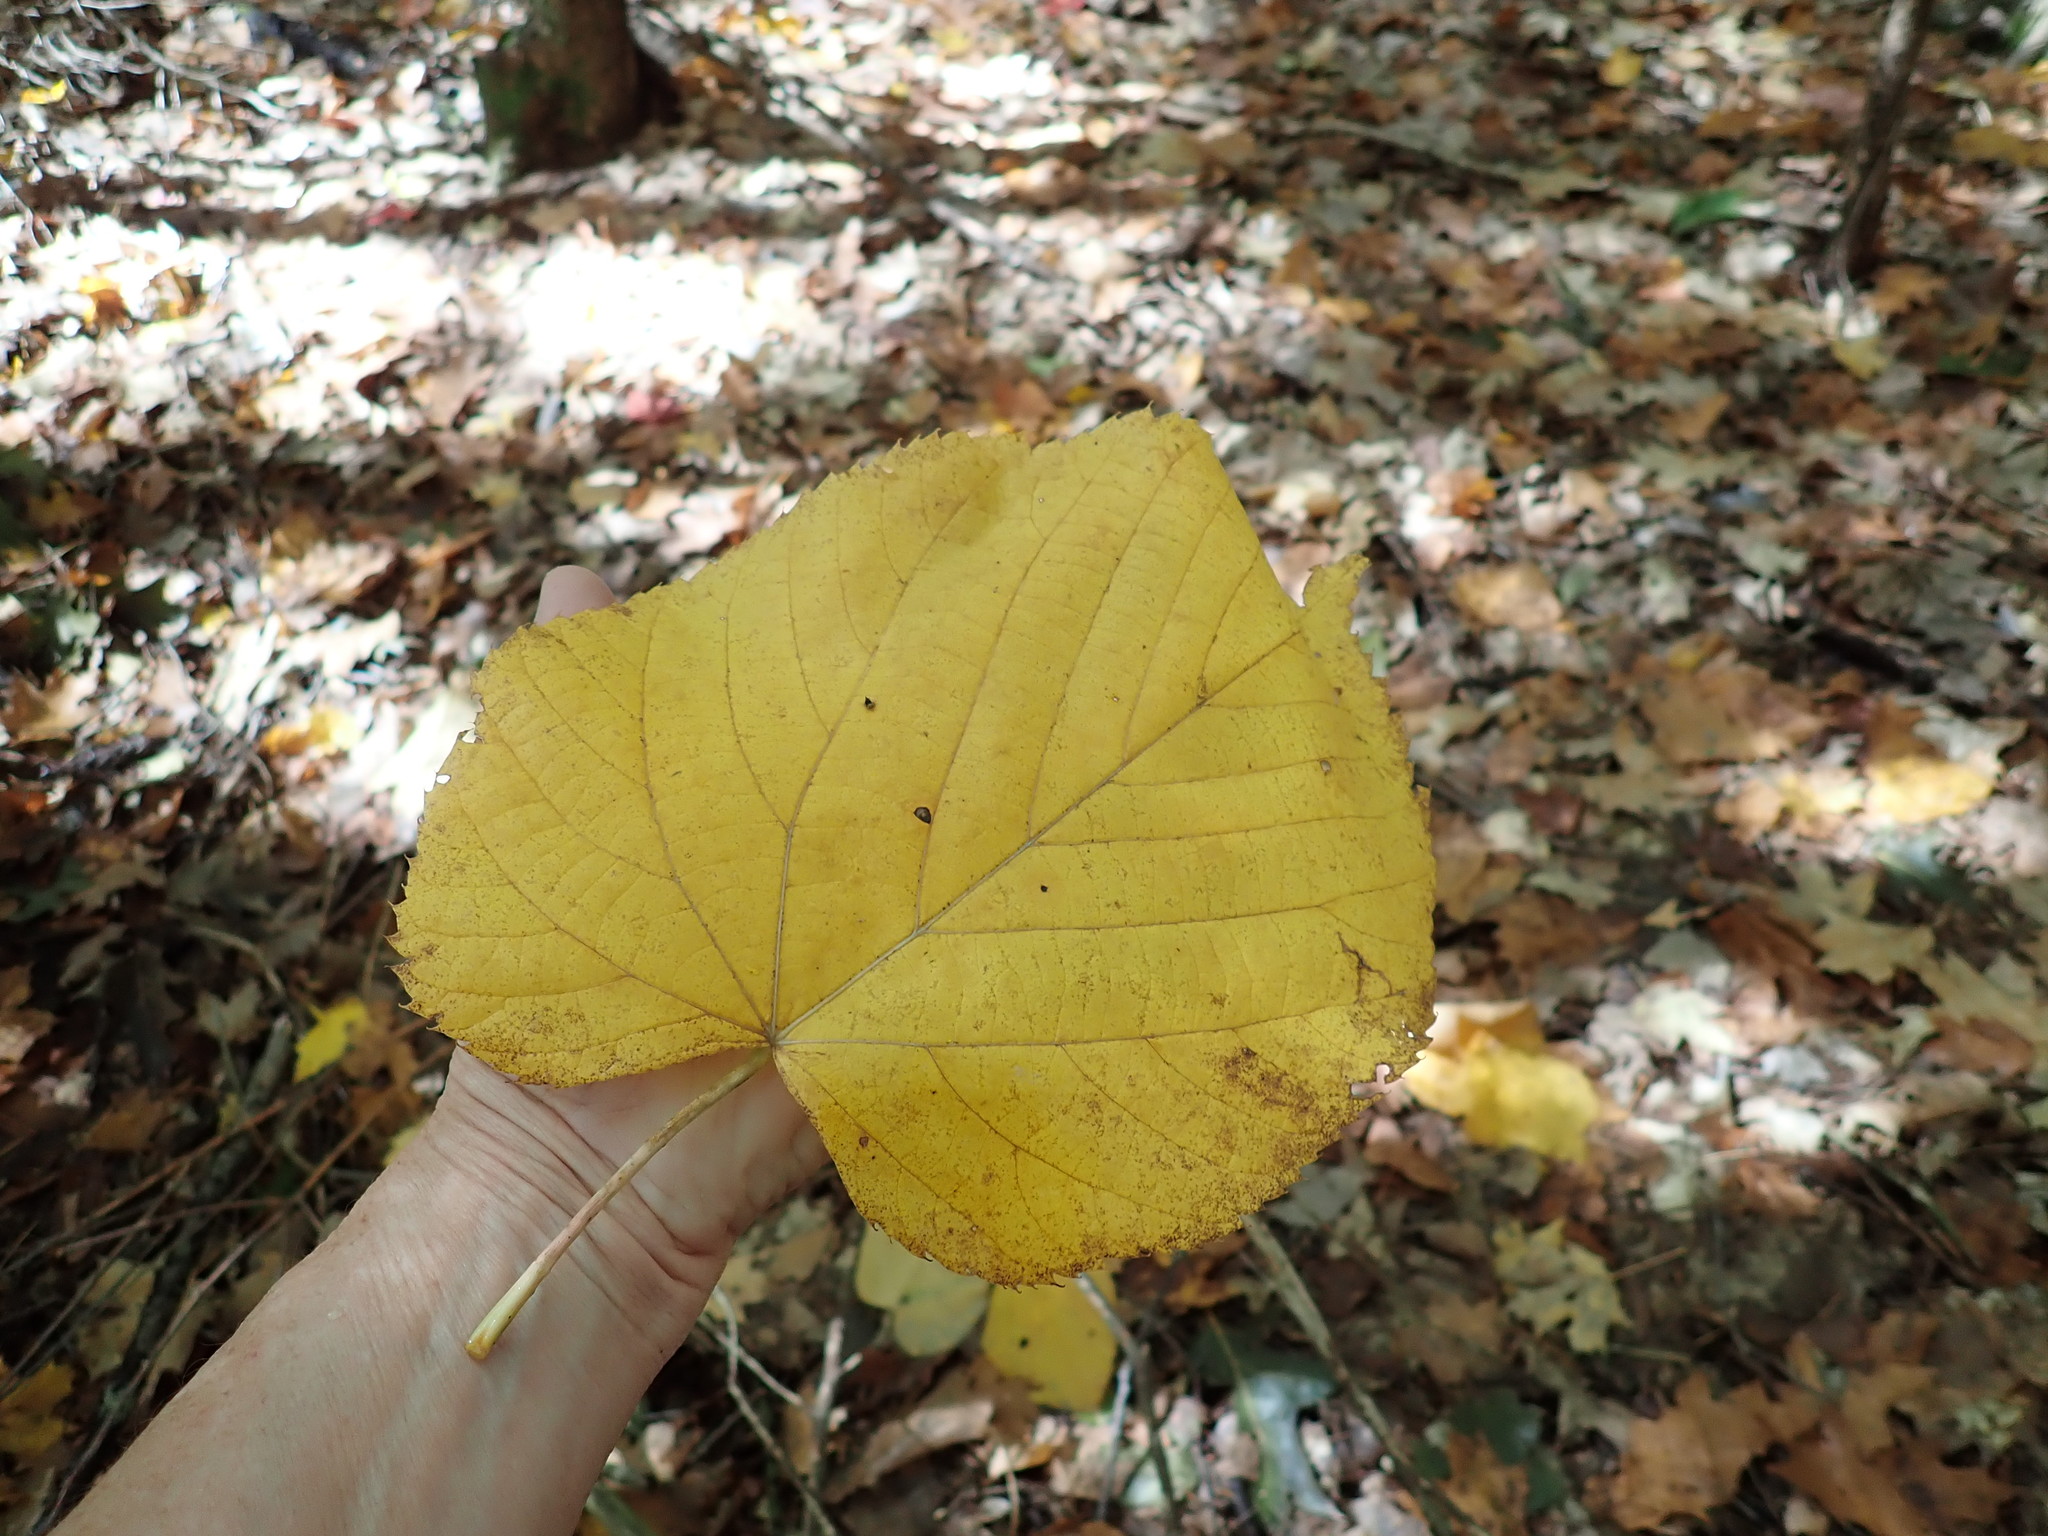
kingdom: Plantae
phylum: Tracheophyta
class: Magnoliopsida
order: Malvales
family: Malvaceae
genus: Tilia
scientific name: Tilia americana
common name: Basswood
